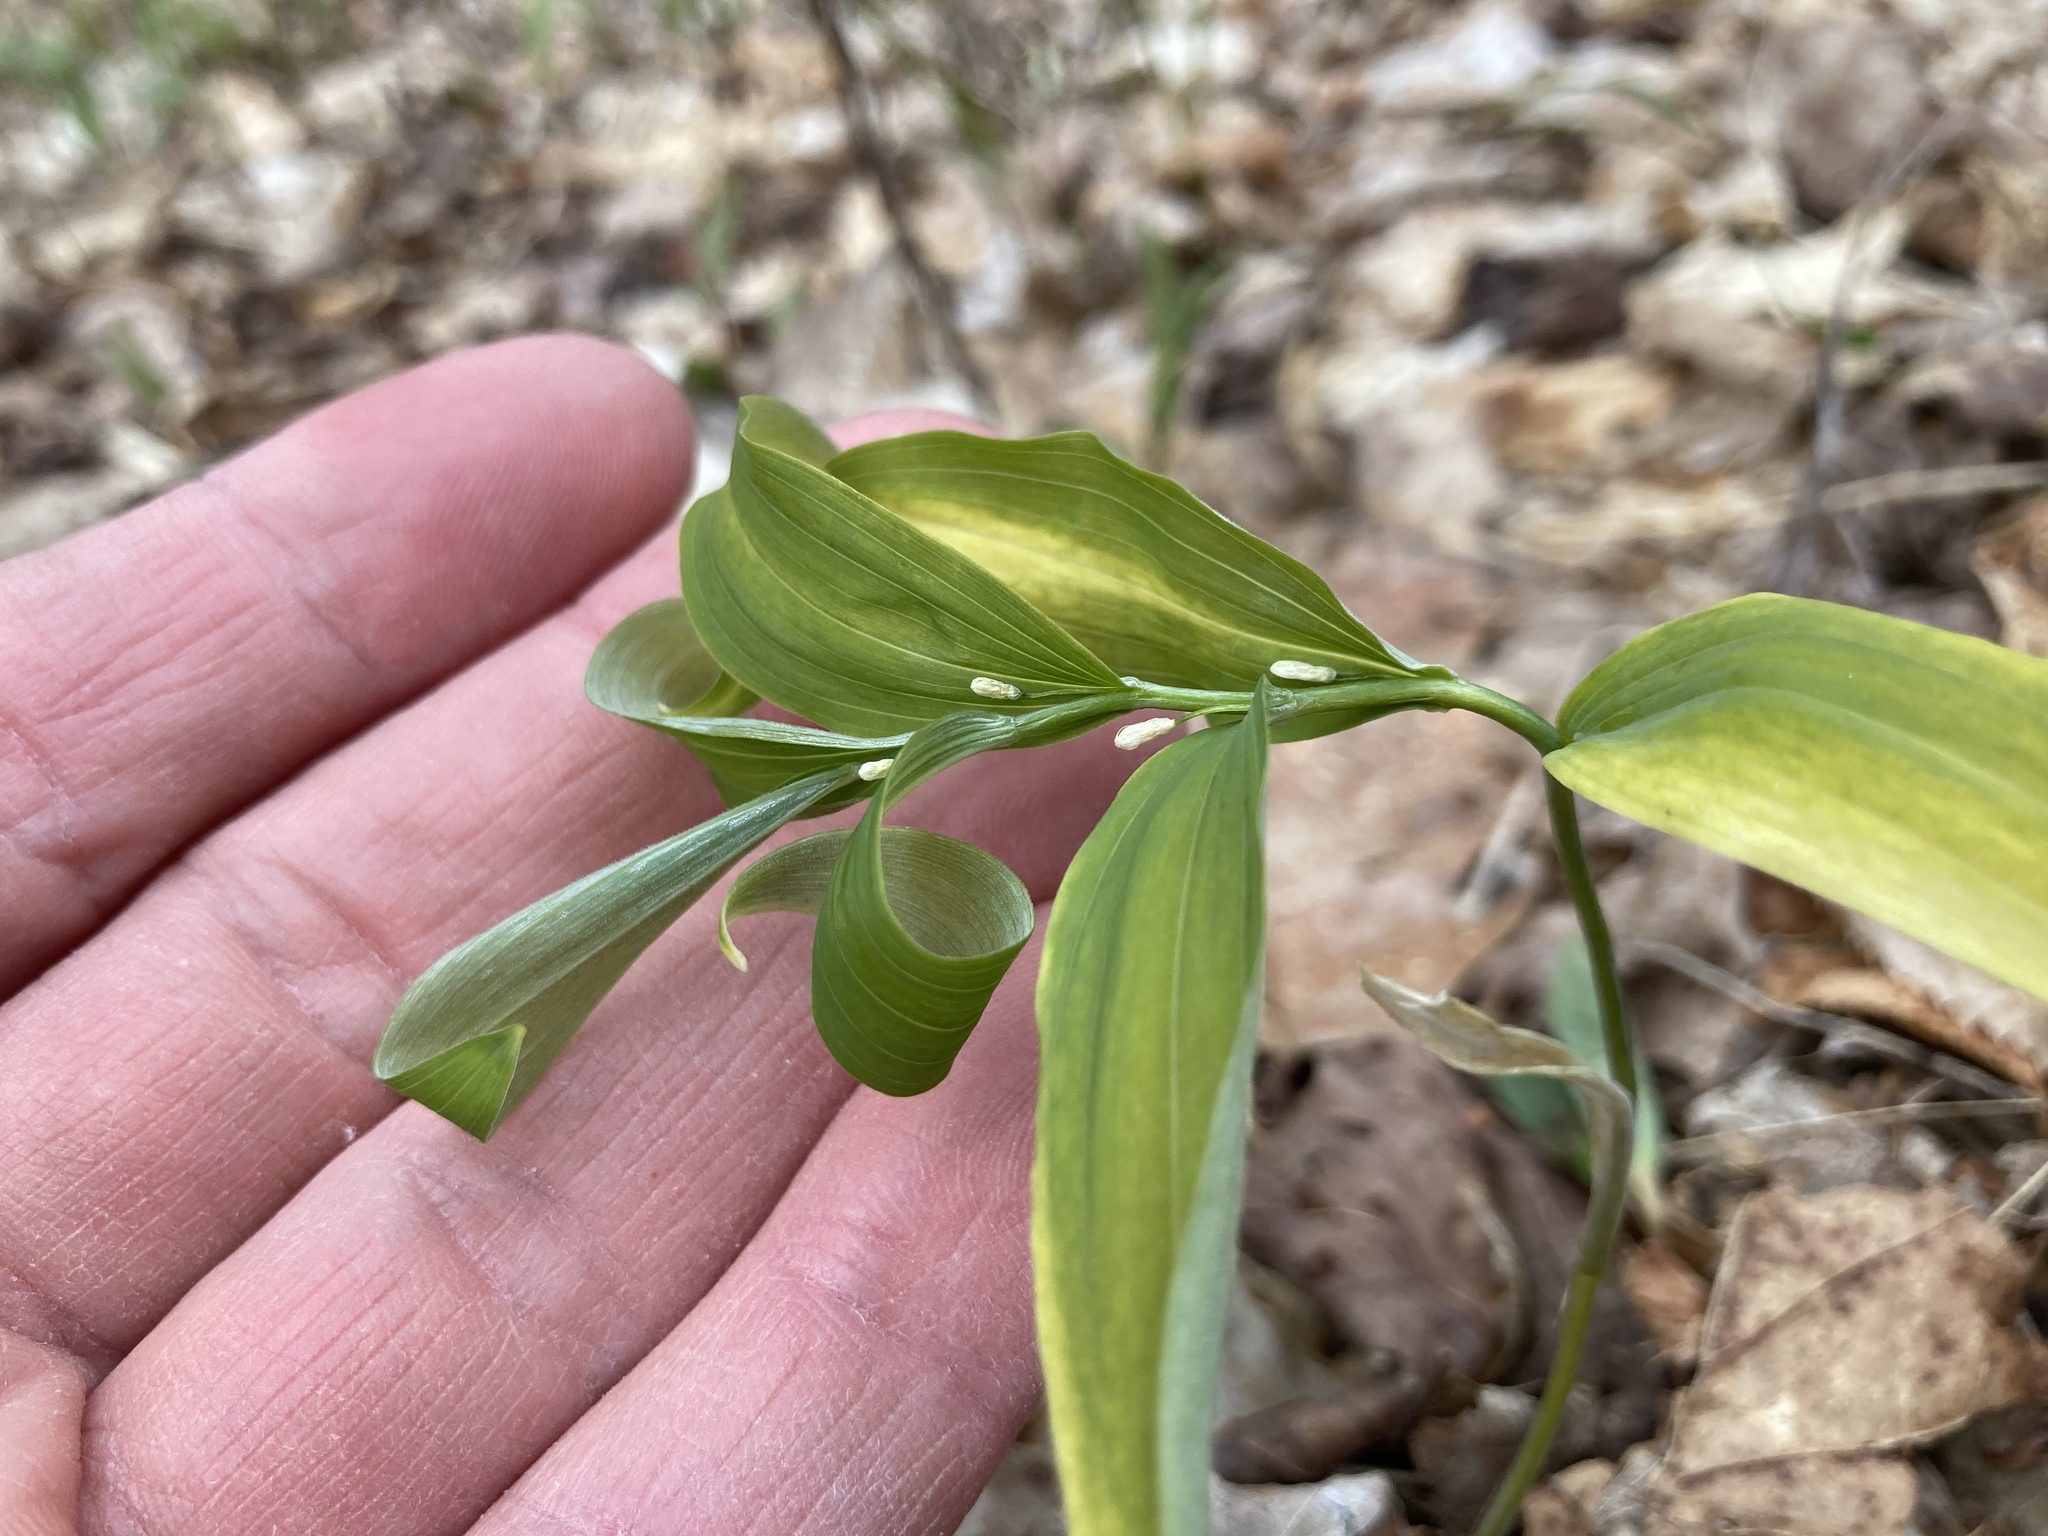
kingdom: Plantae
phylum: Tracheophyta
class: Liliopsida
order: Asparagales
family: Asparagaceae
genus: Polygonatum
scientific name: Polygonatum pubescens
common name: Downy solomon's seal
